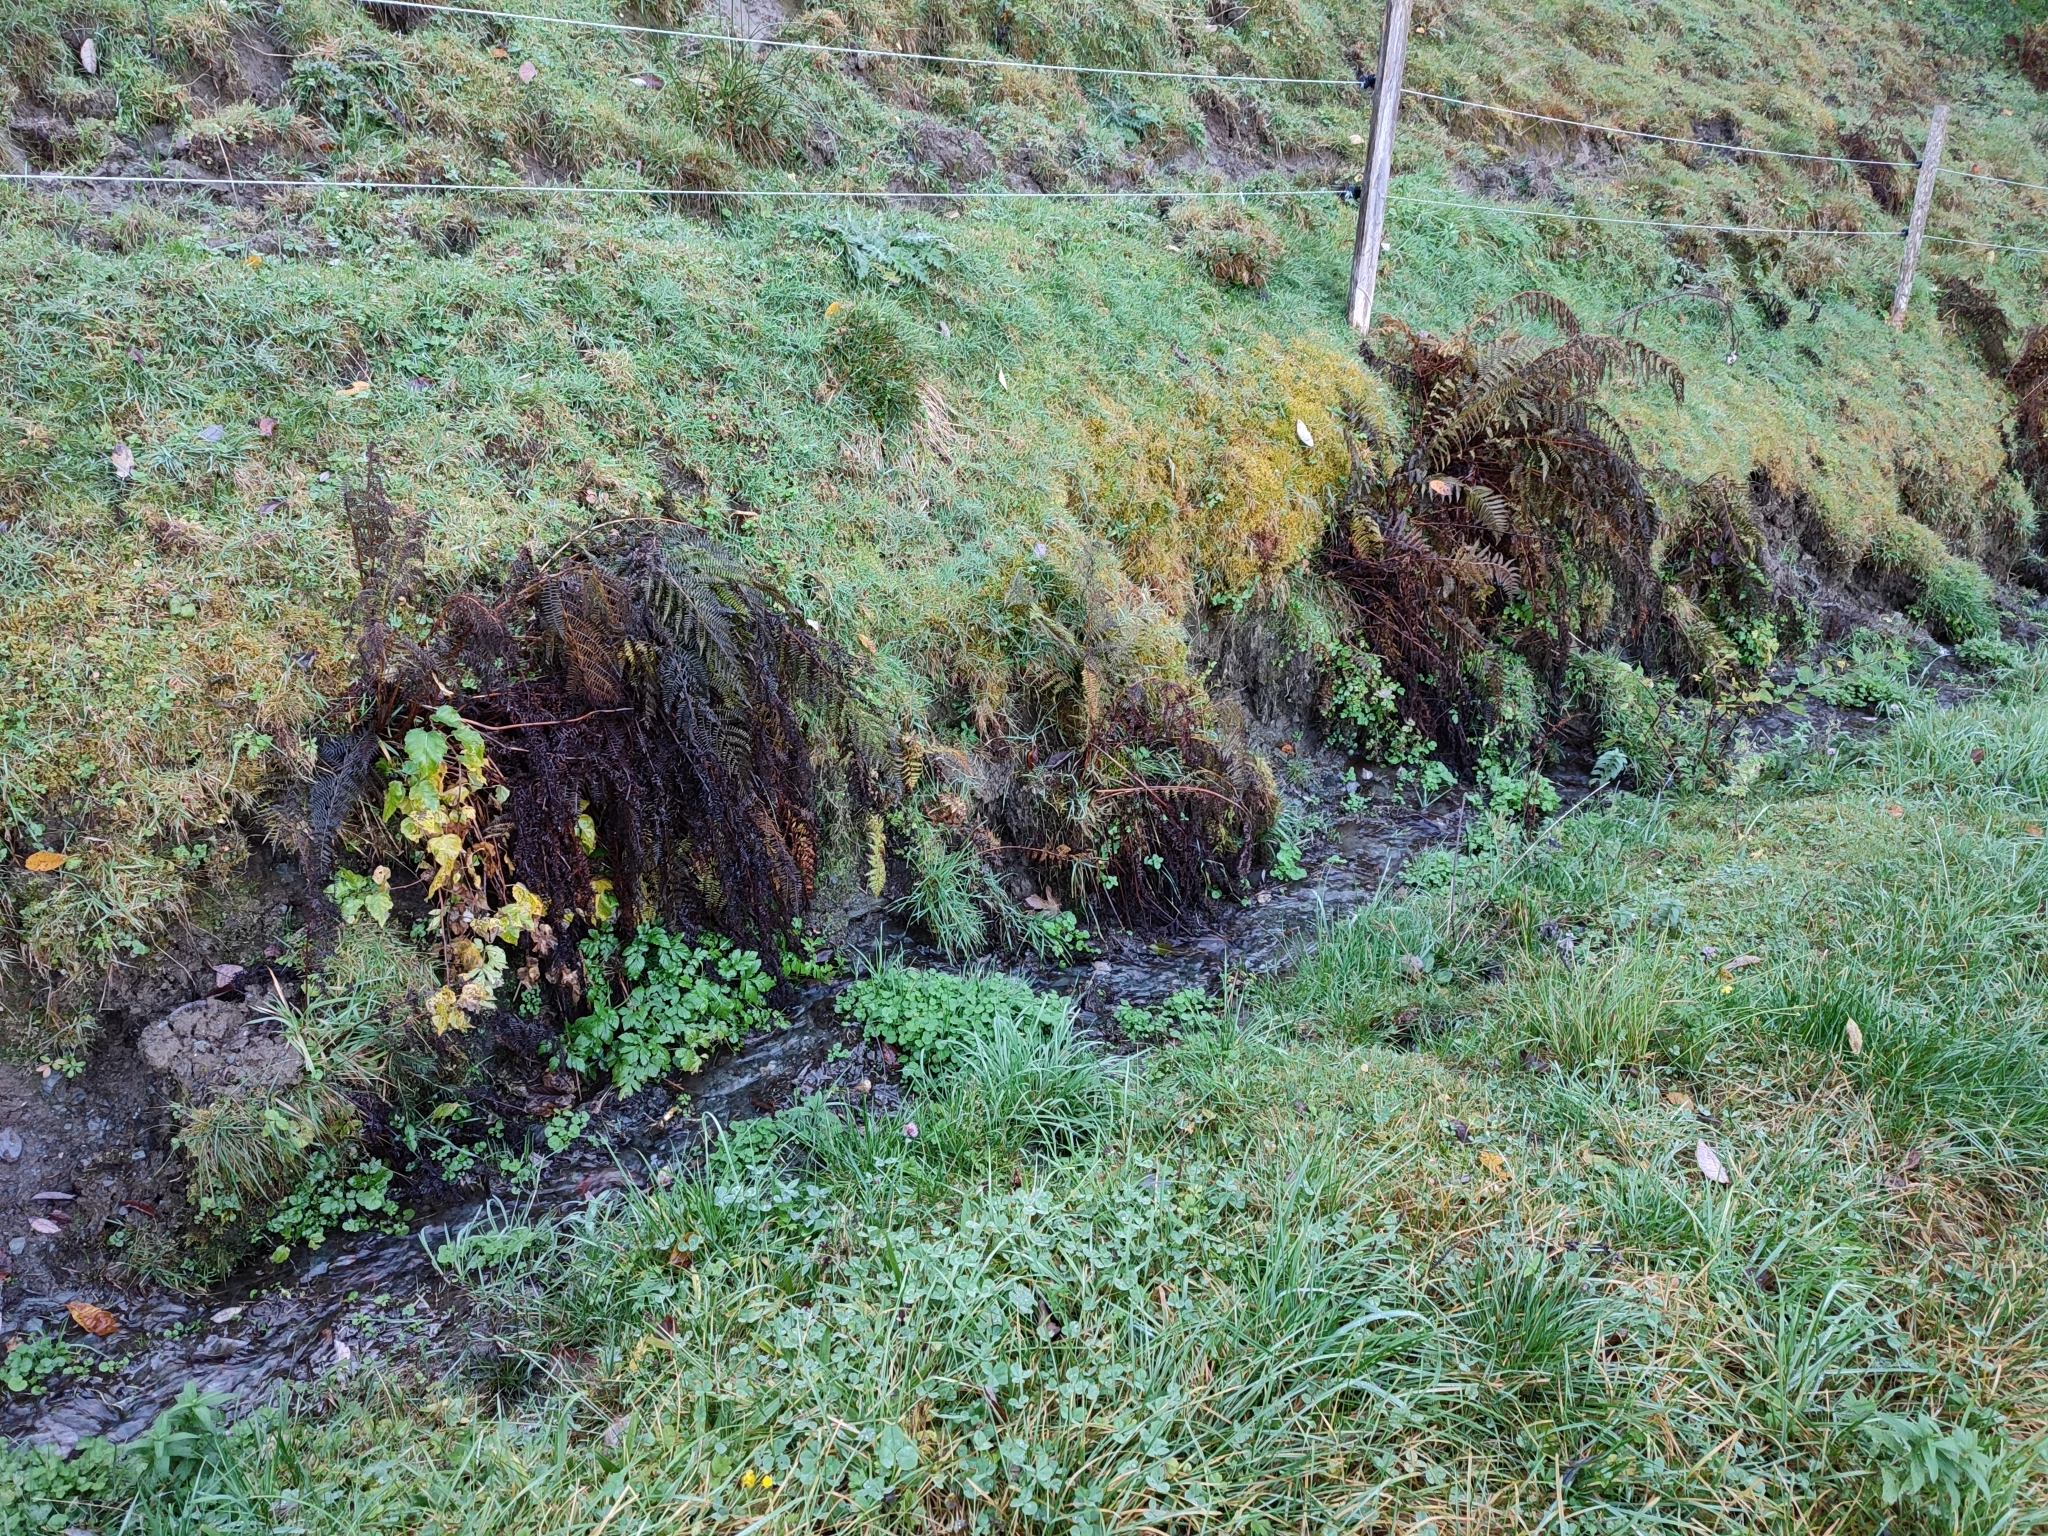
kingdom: Plantae
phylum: Tracheophyta
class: Polypodiopsida
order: Polypodiales
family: Athyriaceae
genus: Athyrium
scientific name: Athyrium filix-femina
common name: Lady fern
